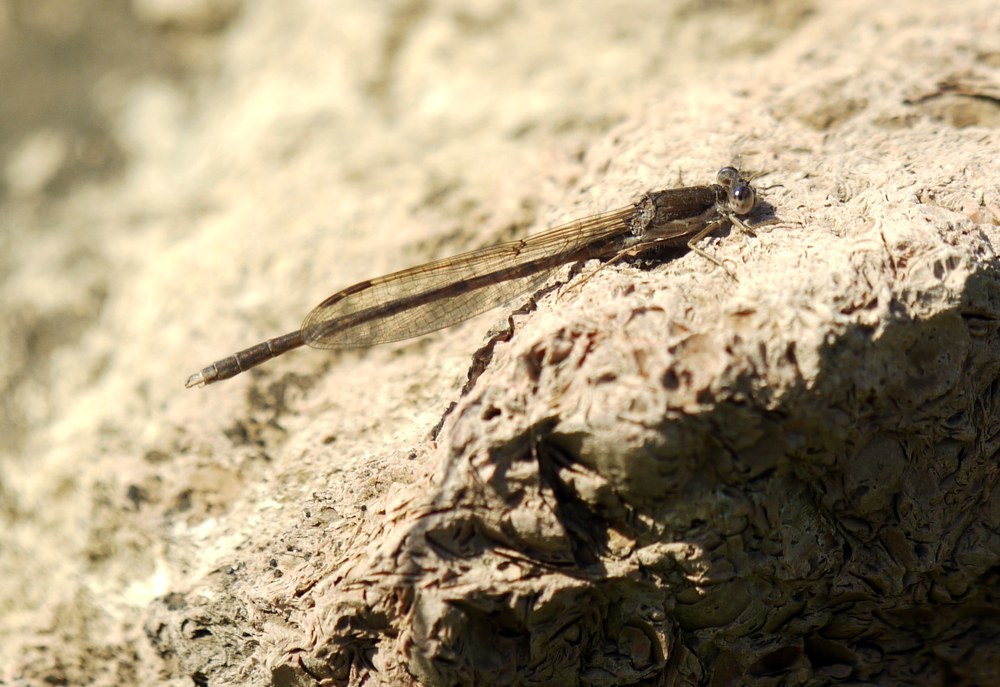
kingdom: Animalia
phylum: Arthropoda
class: Insecta
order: Odonata
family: Lestidae
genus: Sympecma
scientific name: Sympecma fusca
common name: Common winter damsel
